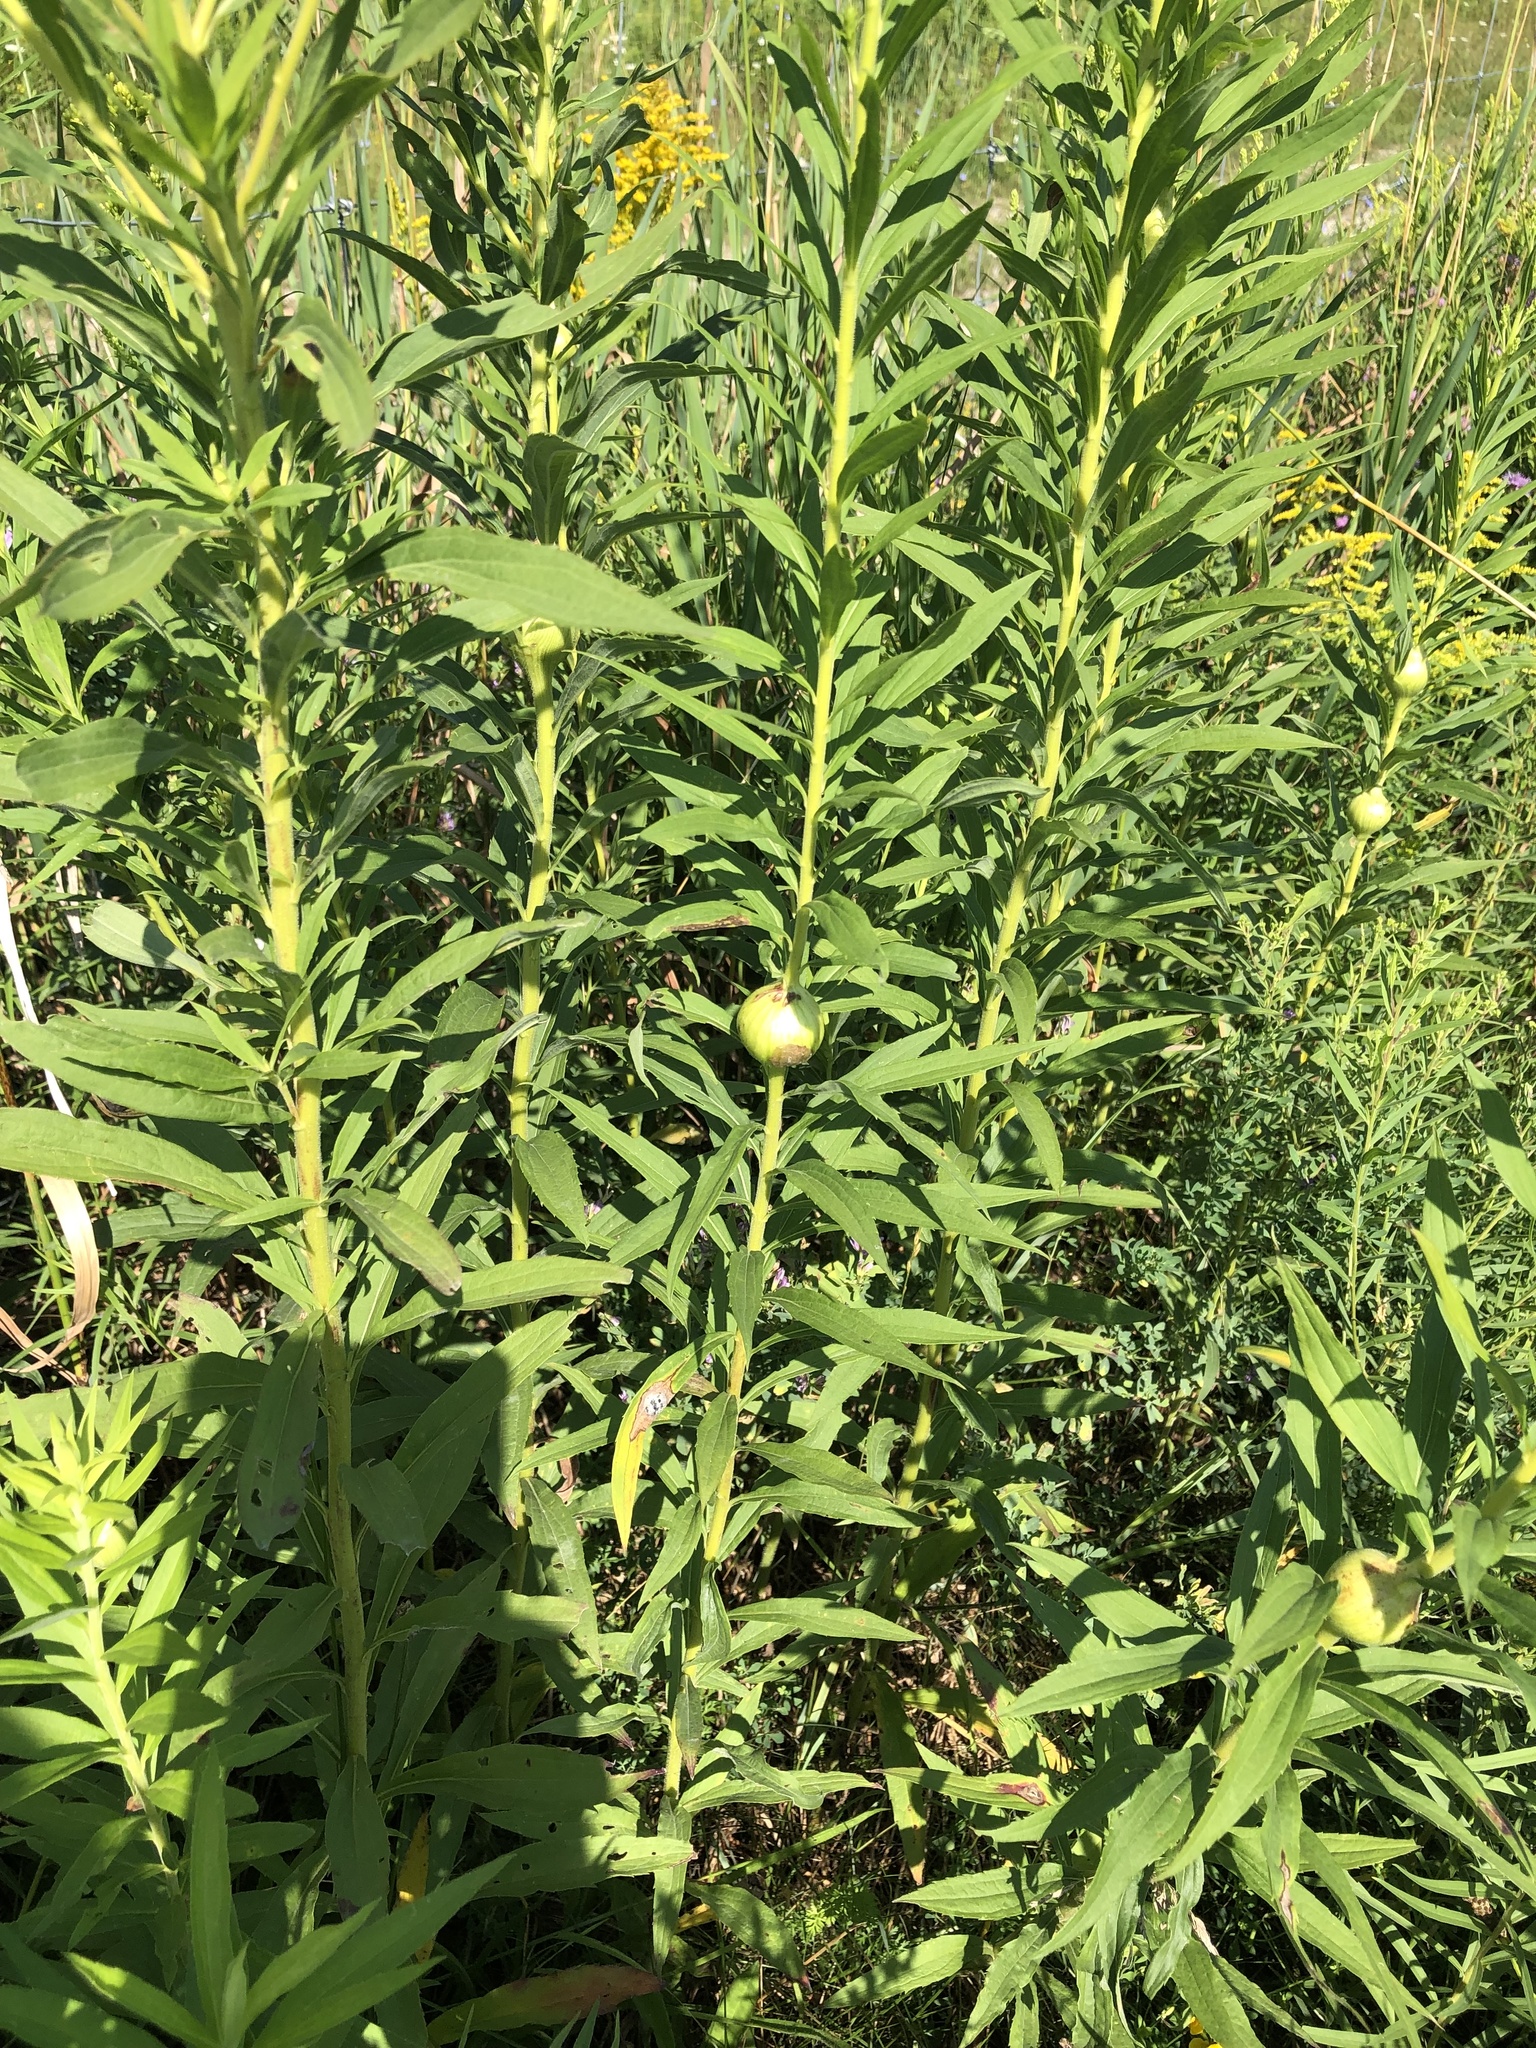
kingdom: Animalia
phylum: Arthropoda
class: Insecta
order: Diptera
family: Tephritidae
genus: Eurosta
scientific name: Eurosta solidaginis
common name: Goldenrod gall fly
